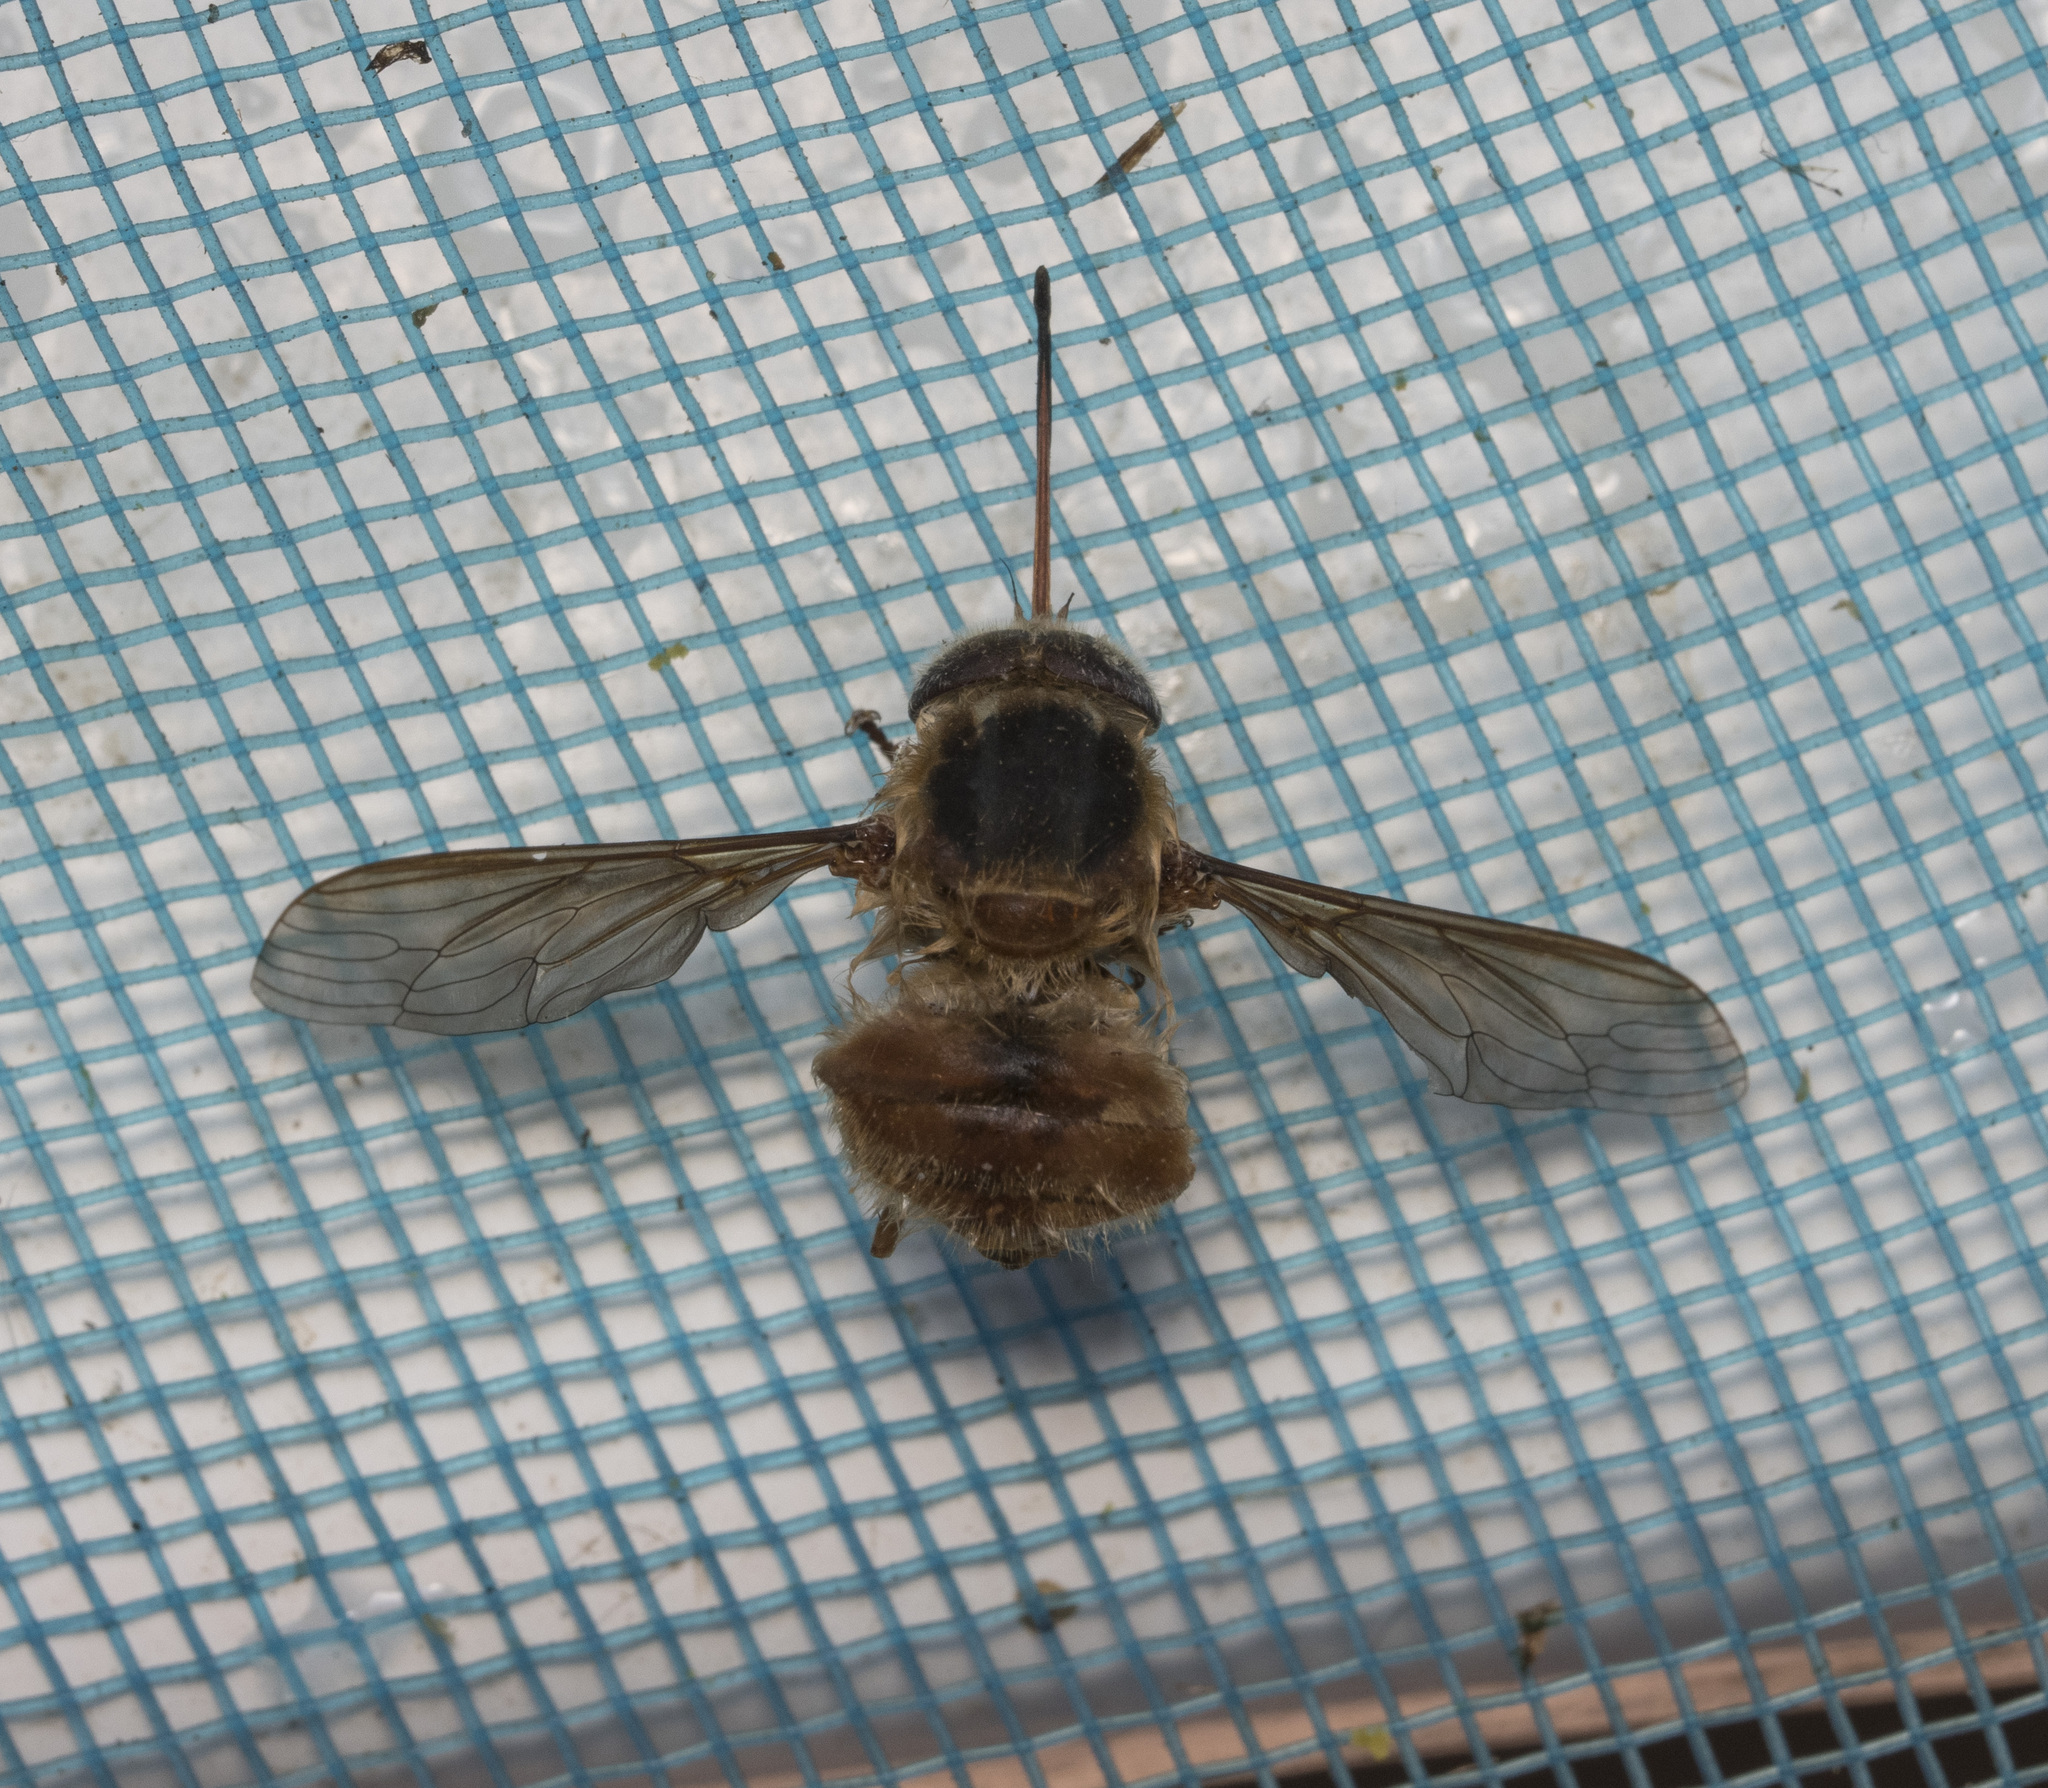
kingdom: Animalia
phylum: Arthropoda
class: Insecta
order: Diptera
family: Nemestrinidae
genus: Trichophthalma
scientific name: Trichophthalma subaurata
